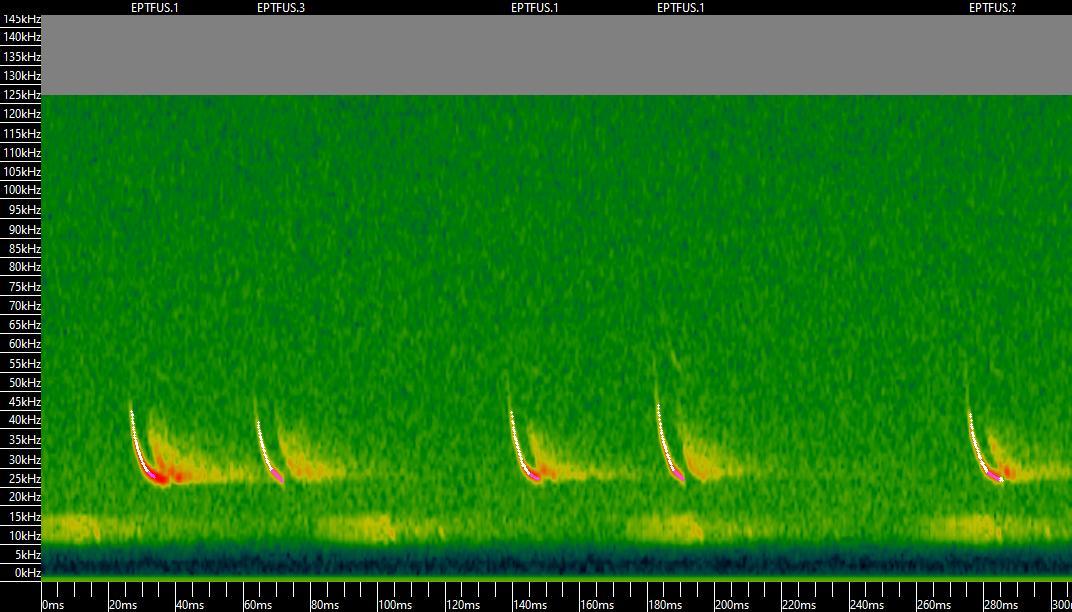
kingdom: Animalia
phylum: Chordata
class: Mammalia
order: Chiroptera
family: Vespertilionidae
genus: Eptesicus
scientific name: Eptesicus fuscus
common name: Big brown bat
